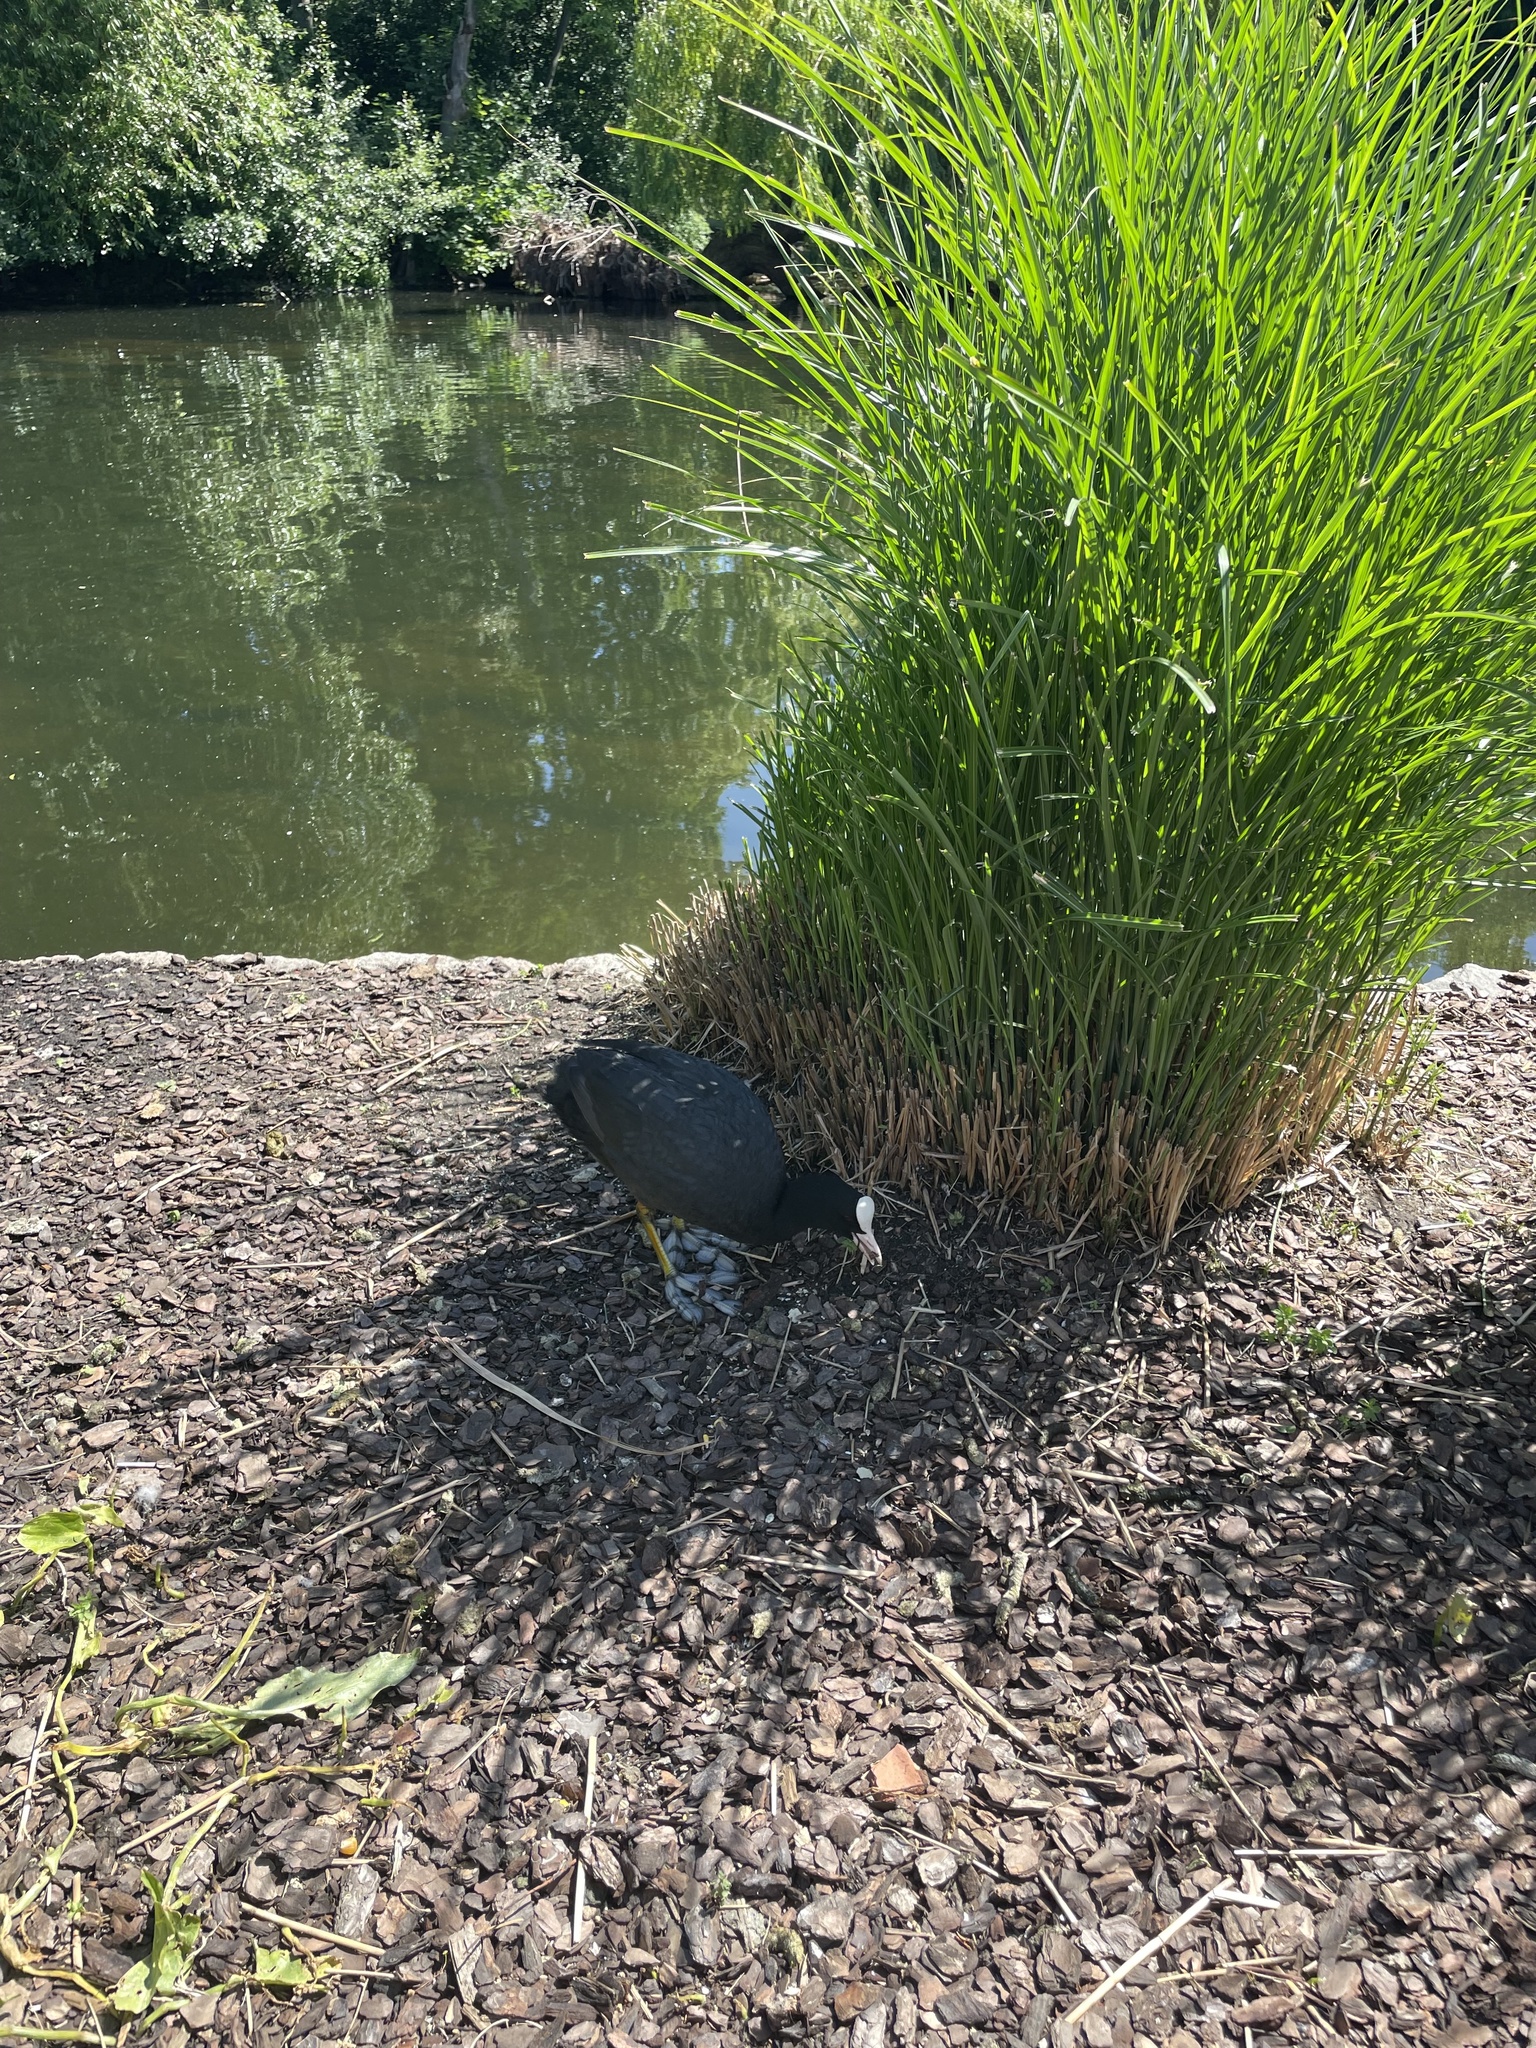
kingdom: Animalia
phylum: Chordata
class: Aves
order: Gruiformes
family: Rallidae
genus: Fulica
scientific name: Fulica atra
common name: Eurasian coot
